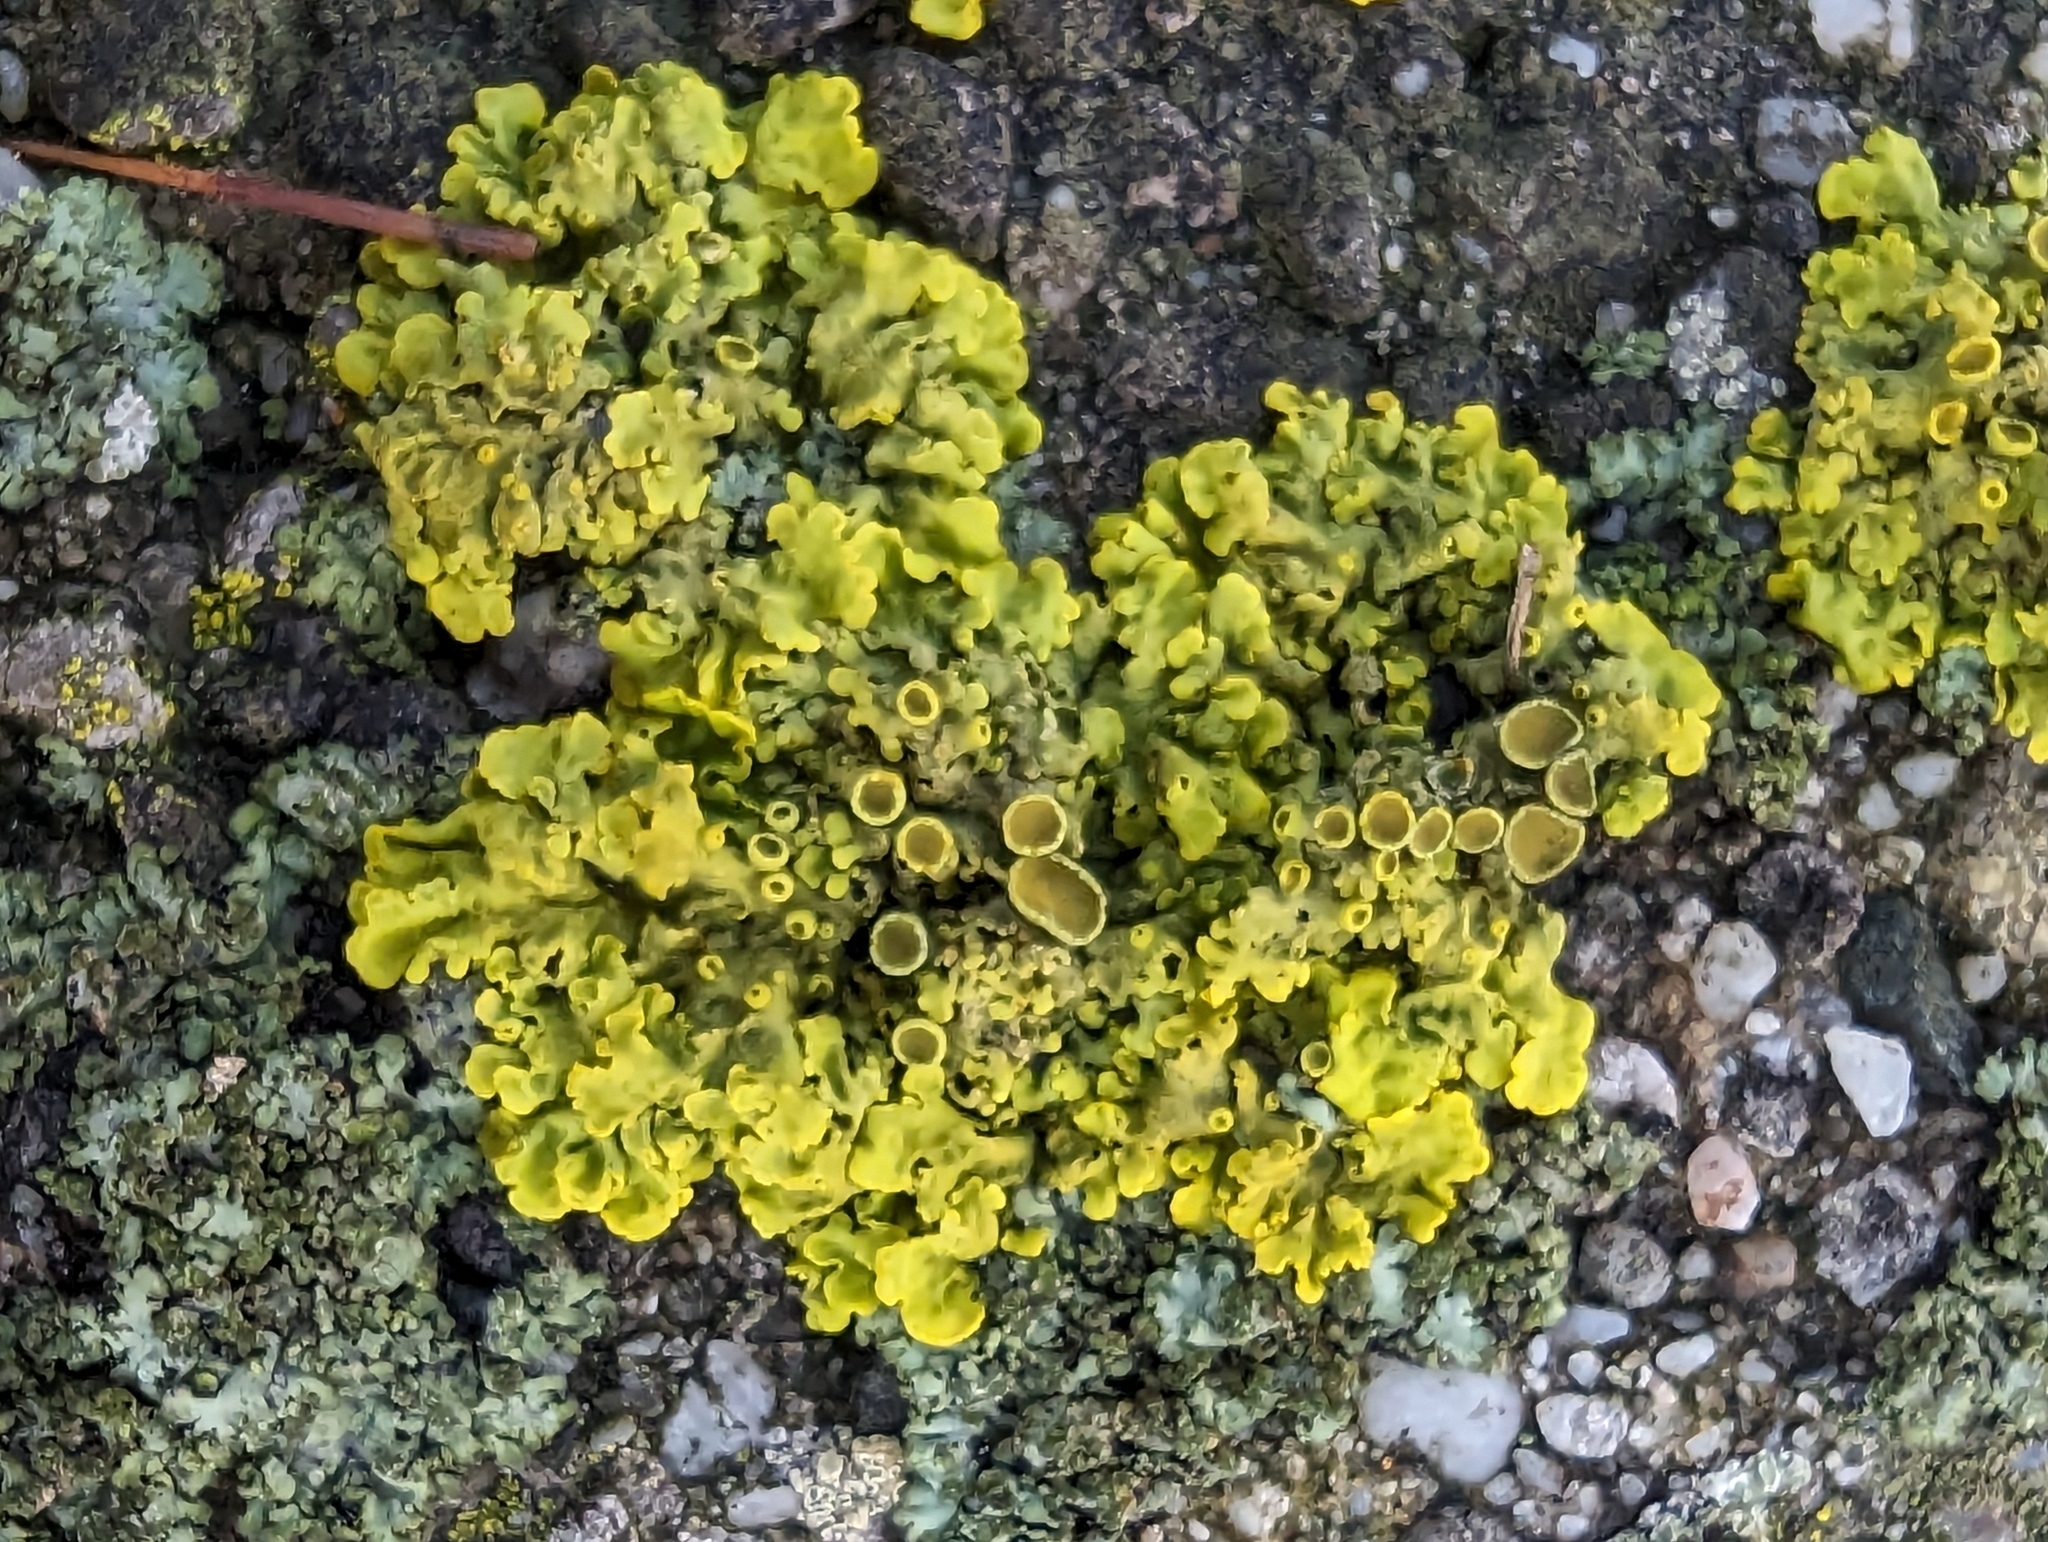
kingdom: Fungi
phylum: Ascomycota
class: Lecanoromycetes
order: Teloschistales
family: Teloschistaceae
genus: Xanthoria
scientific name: Xanthoria parietina
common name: Common orange lichen
